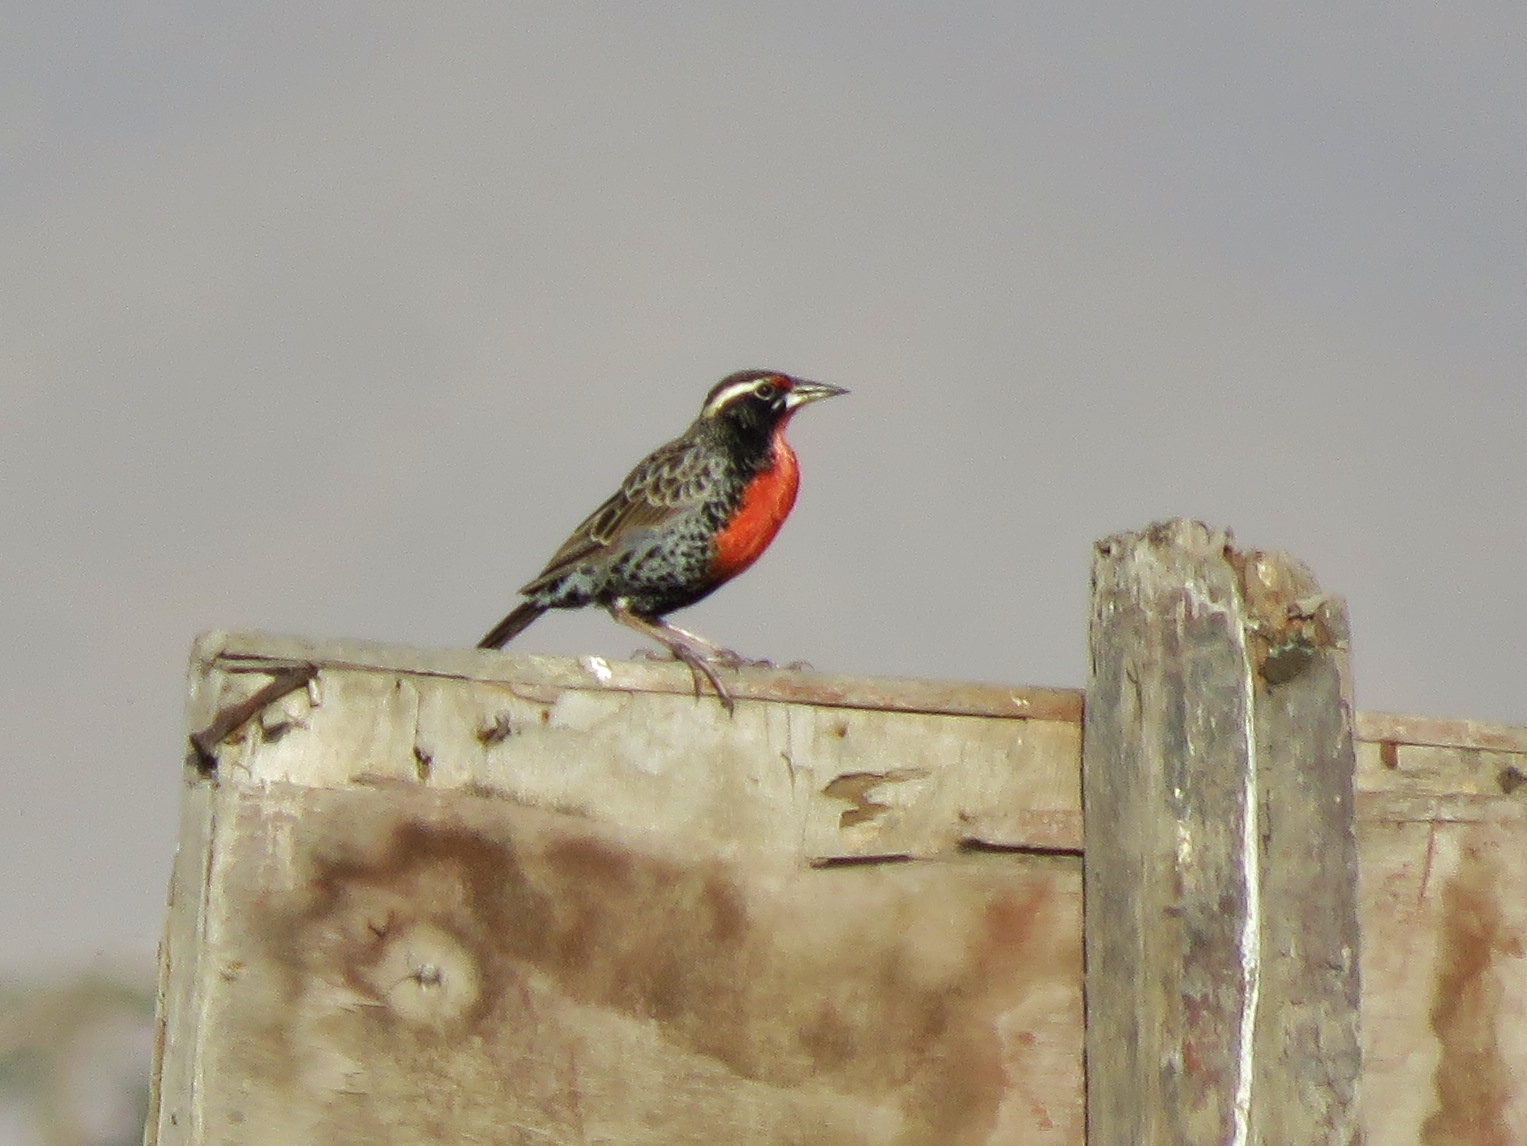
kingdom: Animalia
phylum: Chordata
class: Aves
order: Passeriformes
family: Icteridae
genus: Sturnella
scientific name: Sturnella bellicosa
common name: Peruvian meadowlark
